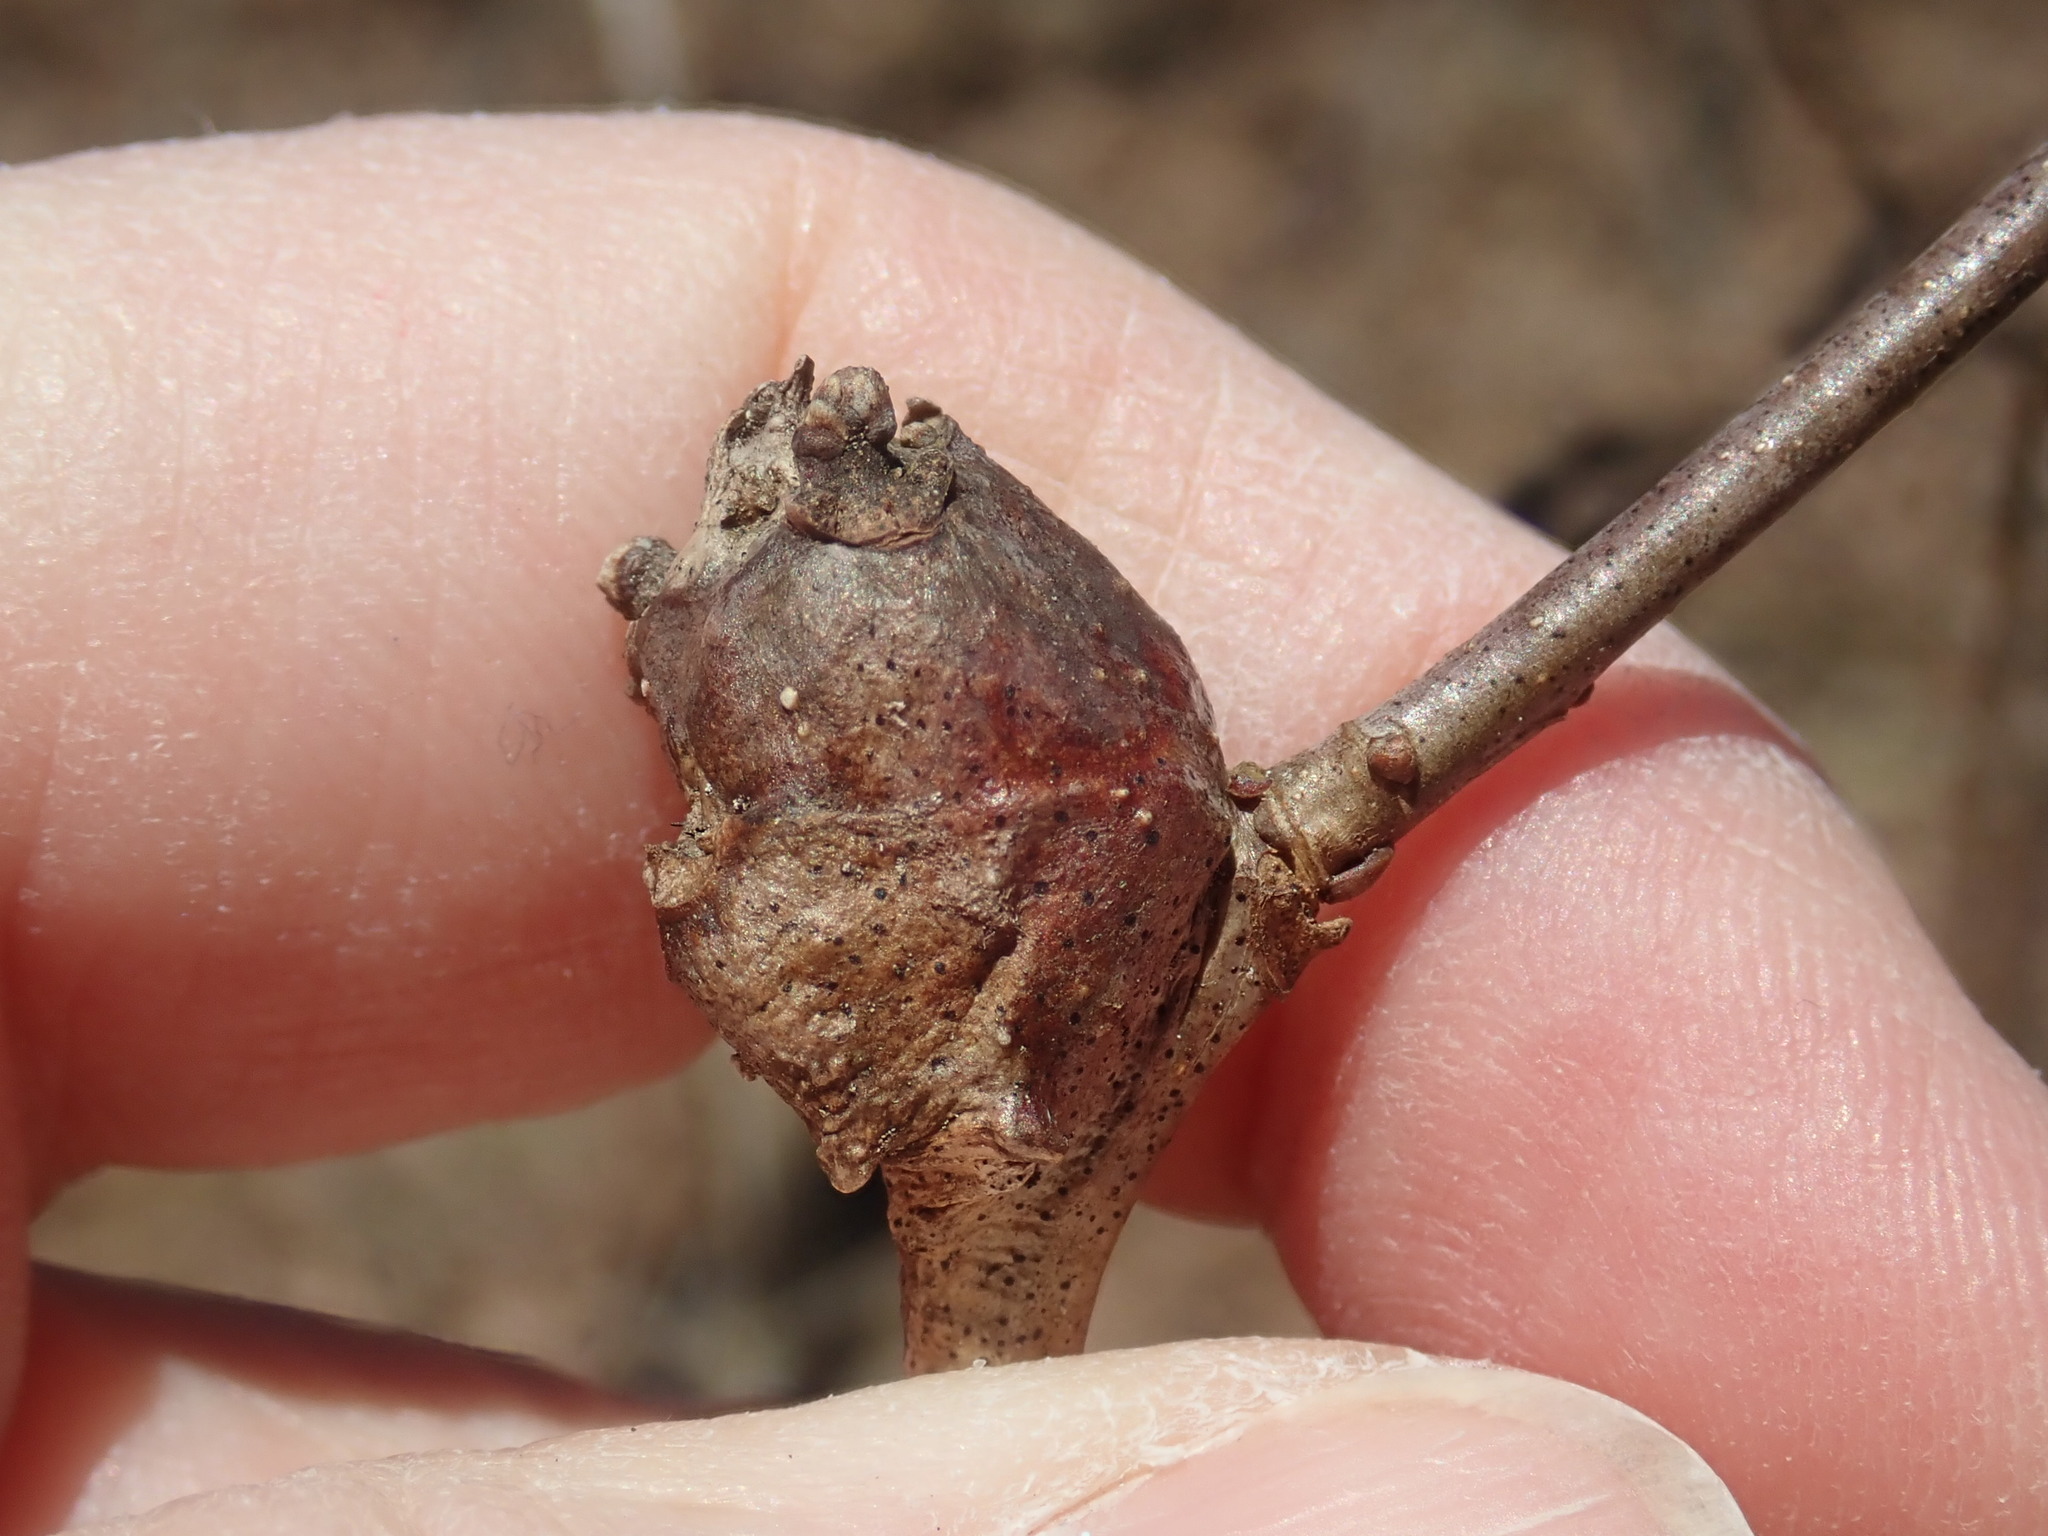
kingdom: Animalia
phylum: Arthropoda
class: Insecta
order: Hymenoptera
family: Cynipidae
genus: Callirhytis
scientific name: Callirhytis clavula
